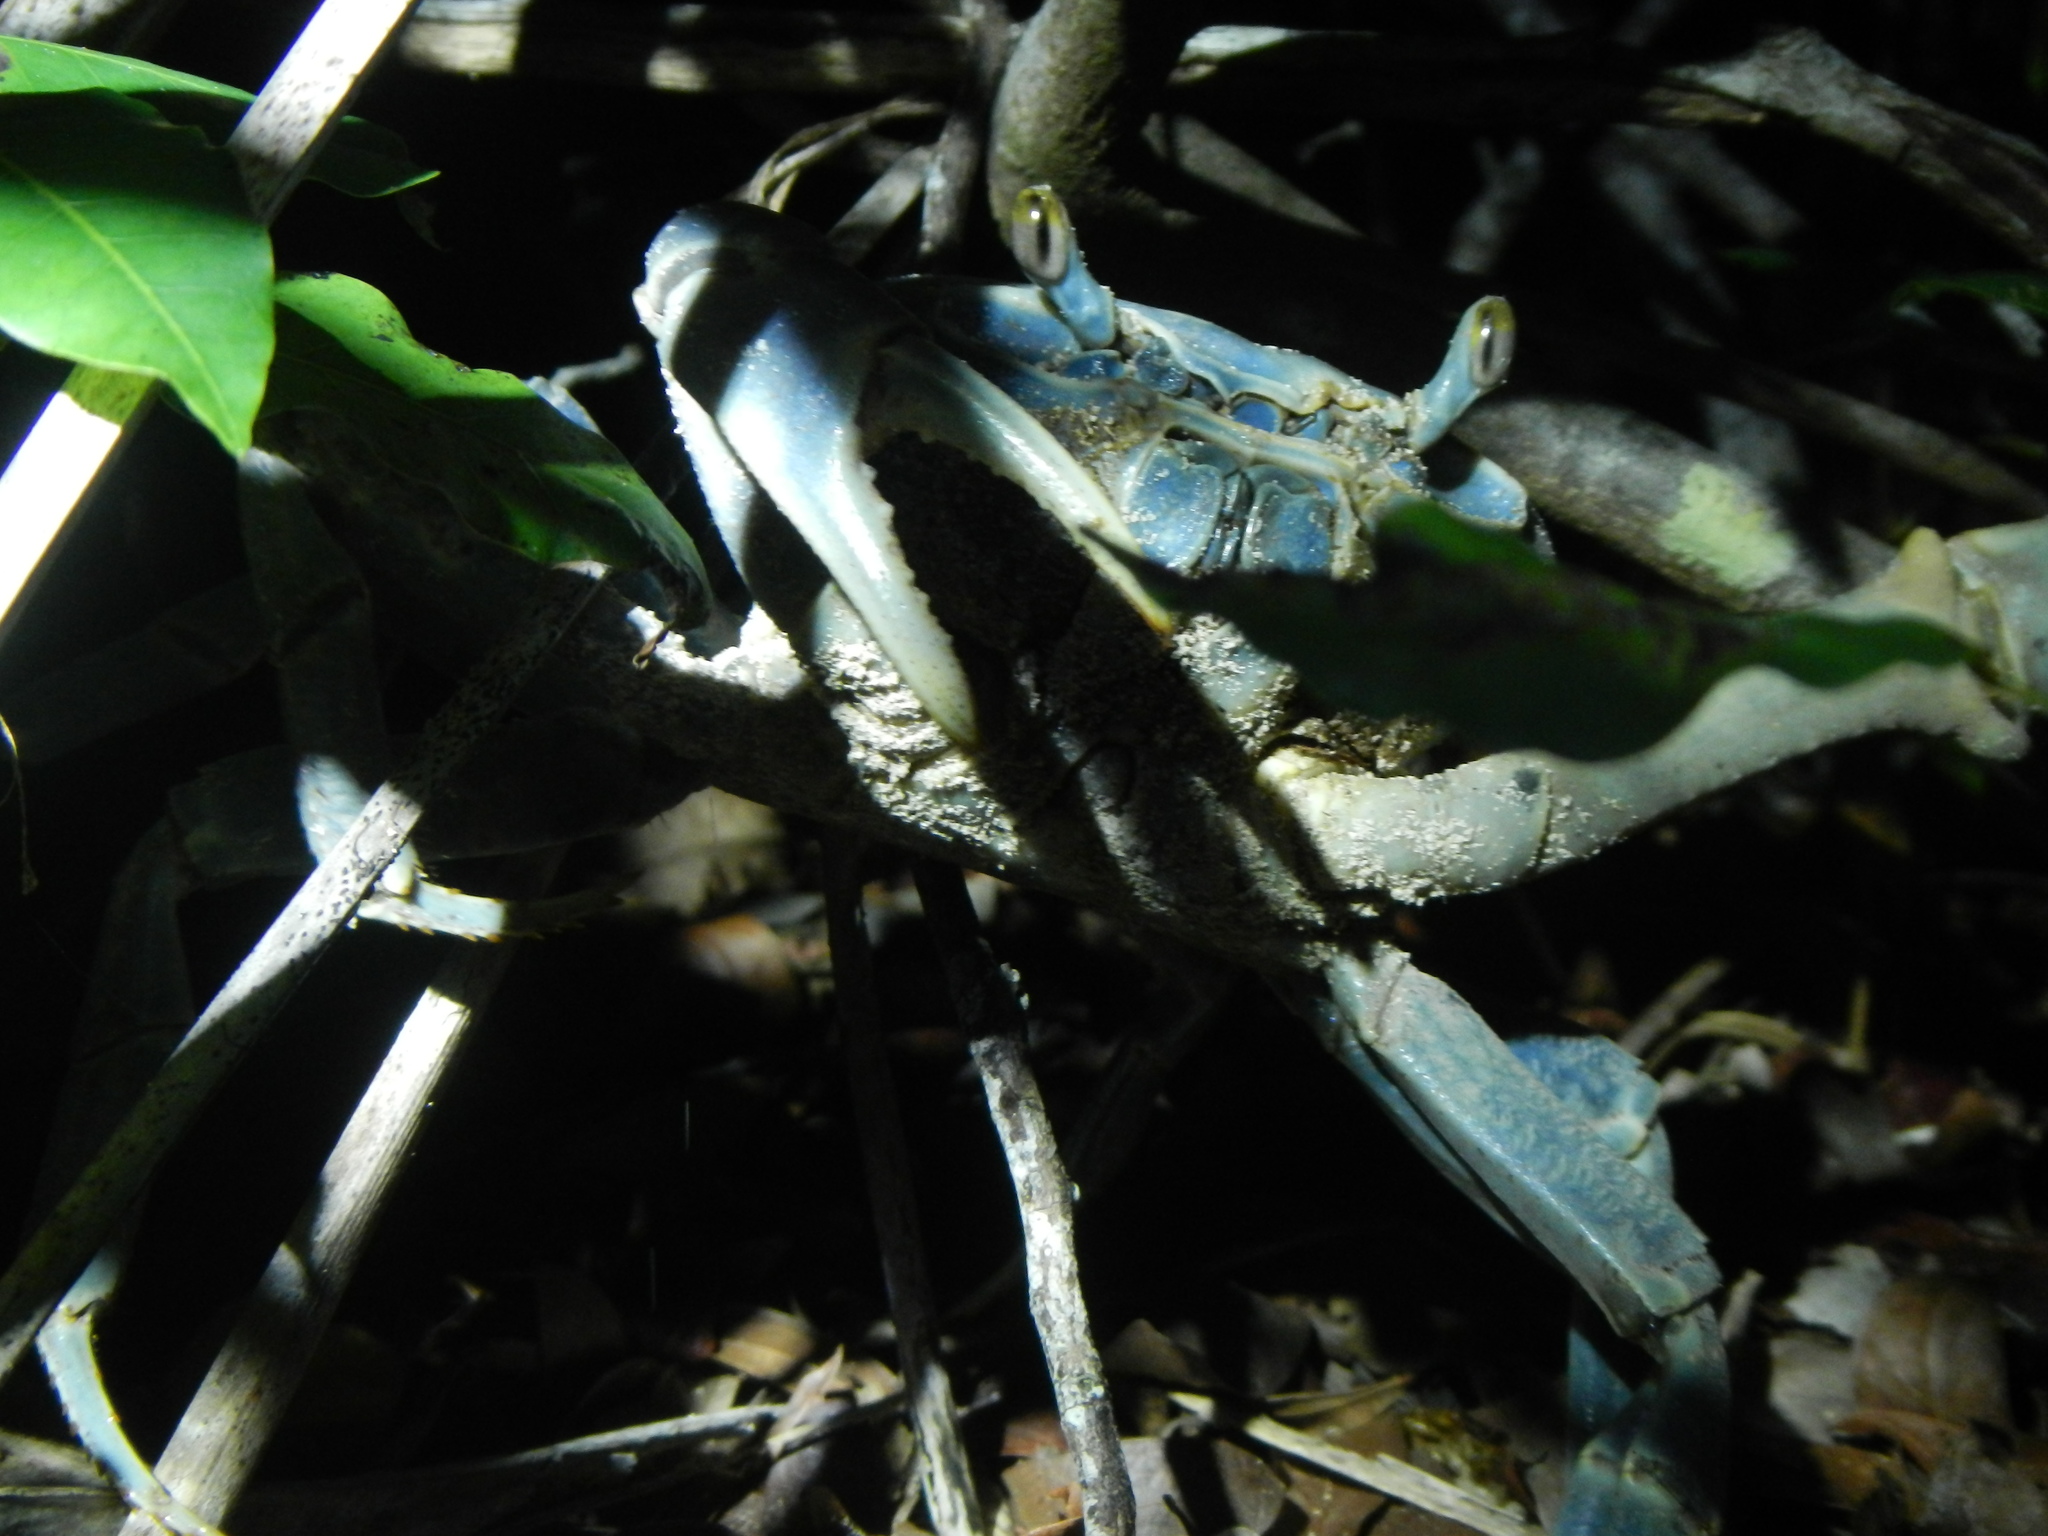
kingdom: Animalia
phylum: Arthropoda
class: Malacostraca
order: Decapoda
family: Gecarcinidae
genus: Cardisoma
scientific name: Cardisoma guanhumi
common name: Great land crab
